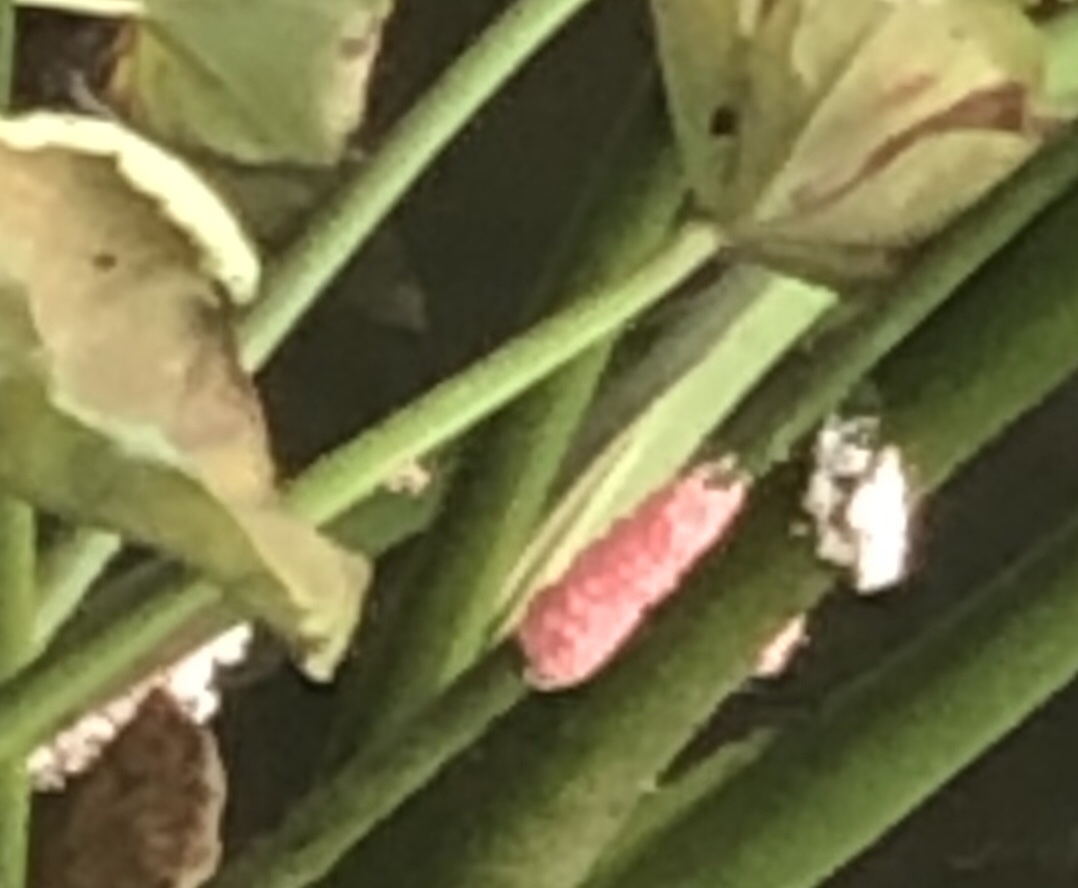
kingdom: Animalia
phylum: Mollusca
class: Gastropoda
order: Architaenioglossa
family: Ampullariidae
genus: Pomacea
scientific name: Pomacea canaliculata
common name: Channeled applesnail
